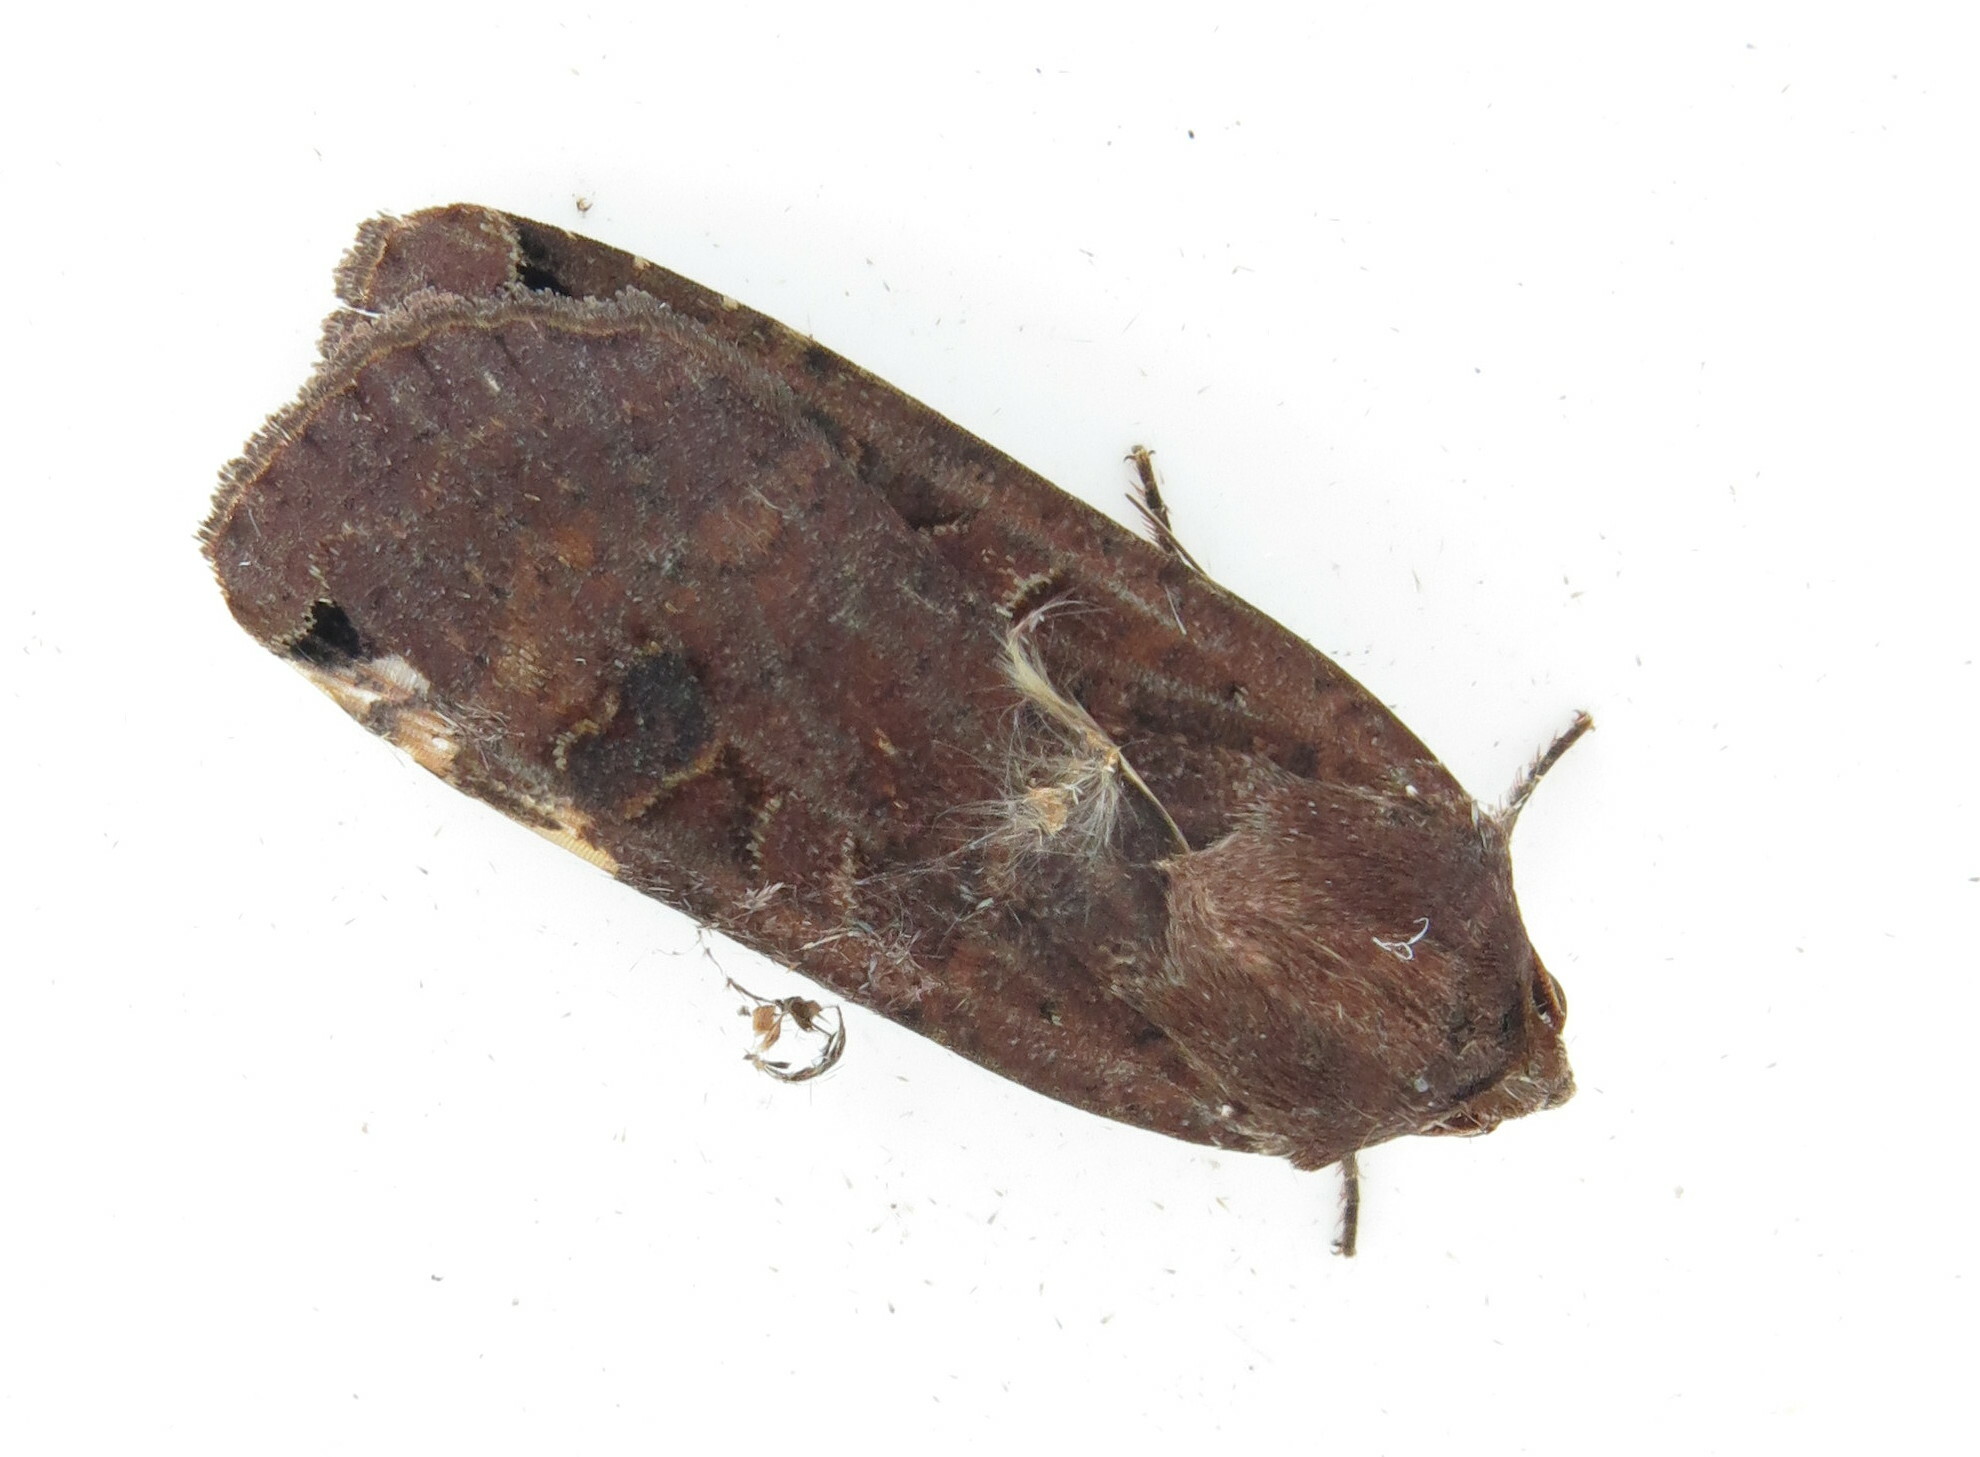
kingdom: Animalia
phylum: Arthropoda
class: Insecta
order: Lepidoptera
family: Noctuidae
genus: Noctua
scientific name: Noctua pronuba
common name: Large yellow underwing
